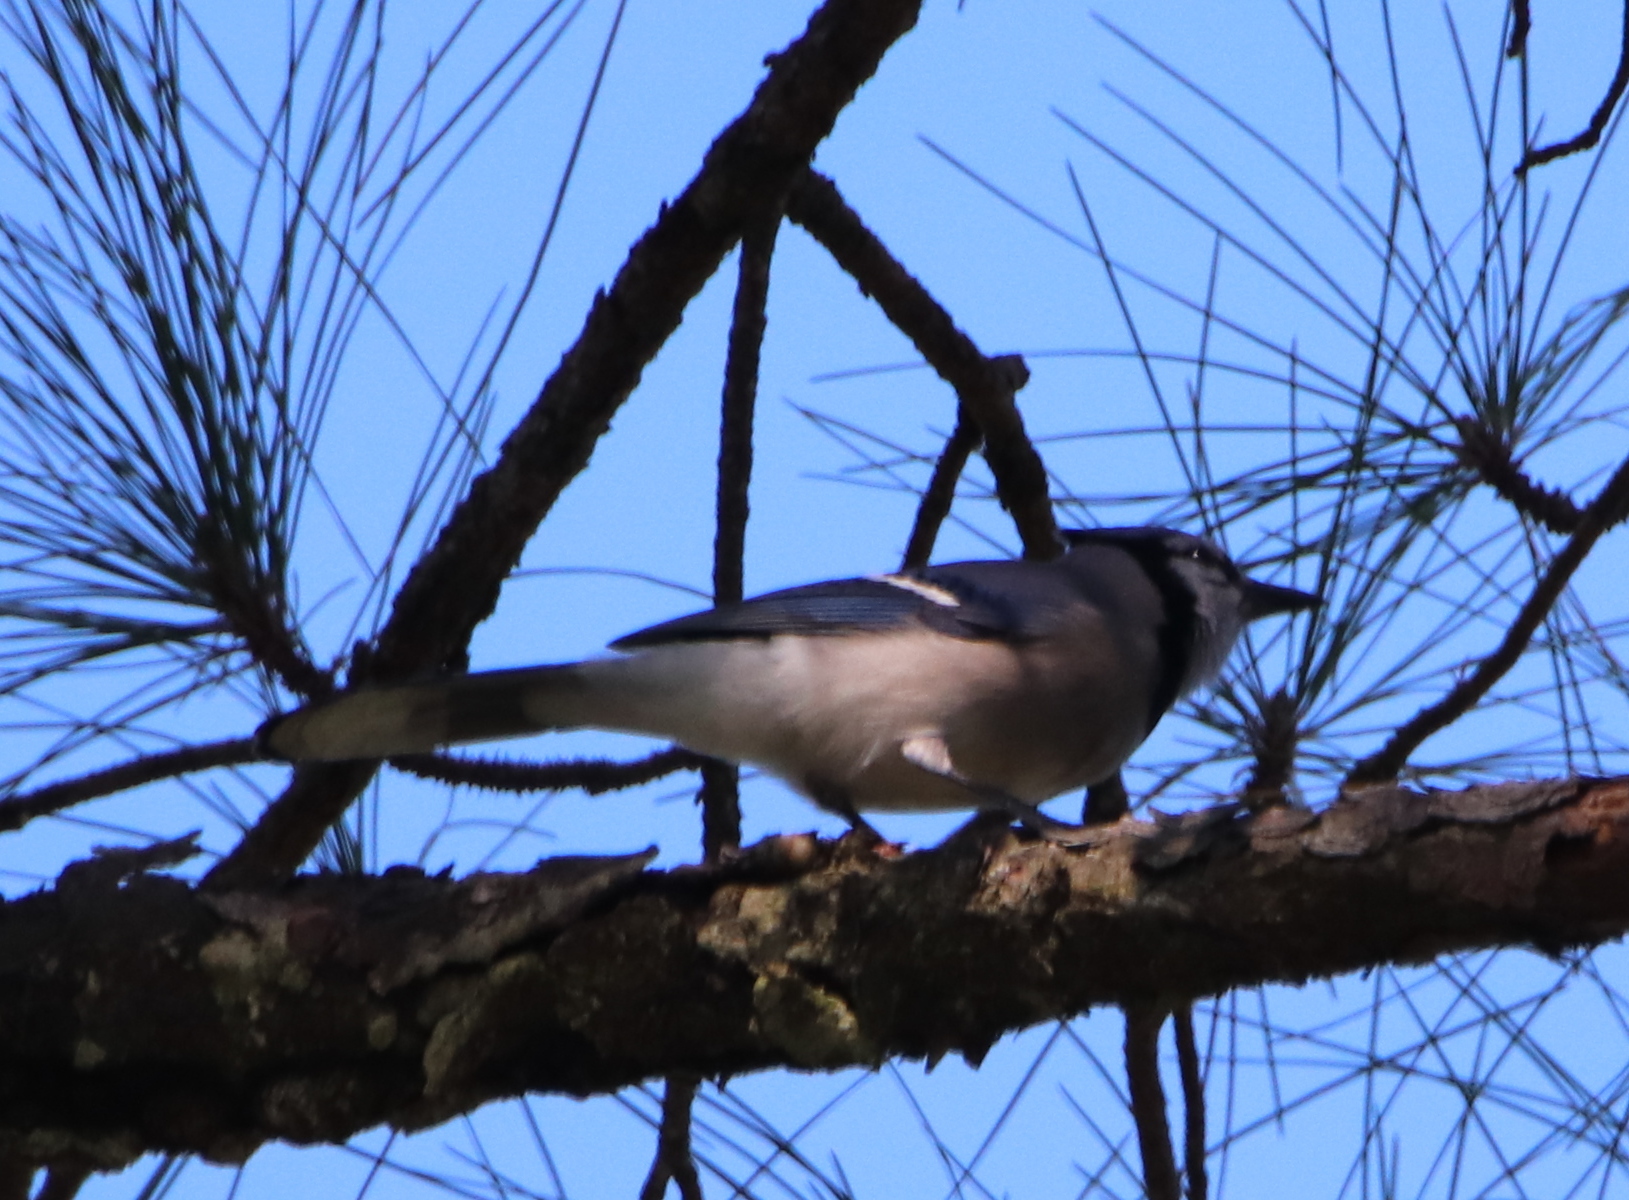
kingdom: Animalia
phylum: Chordata
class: Aves
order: Passeriformes
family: Corvidae
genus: Cyanocitta
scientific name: Cyanocitta cristata
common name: Blue jay
